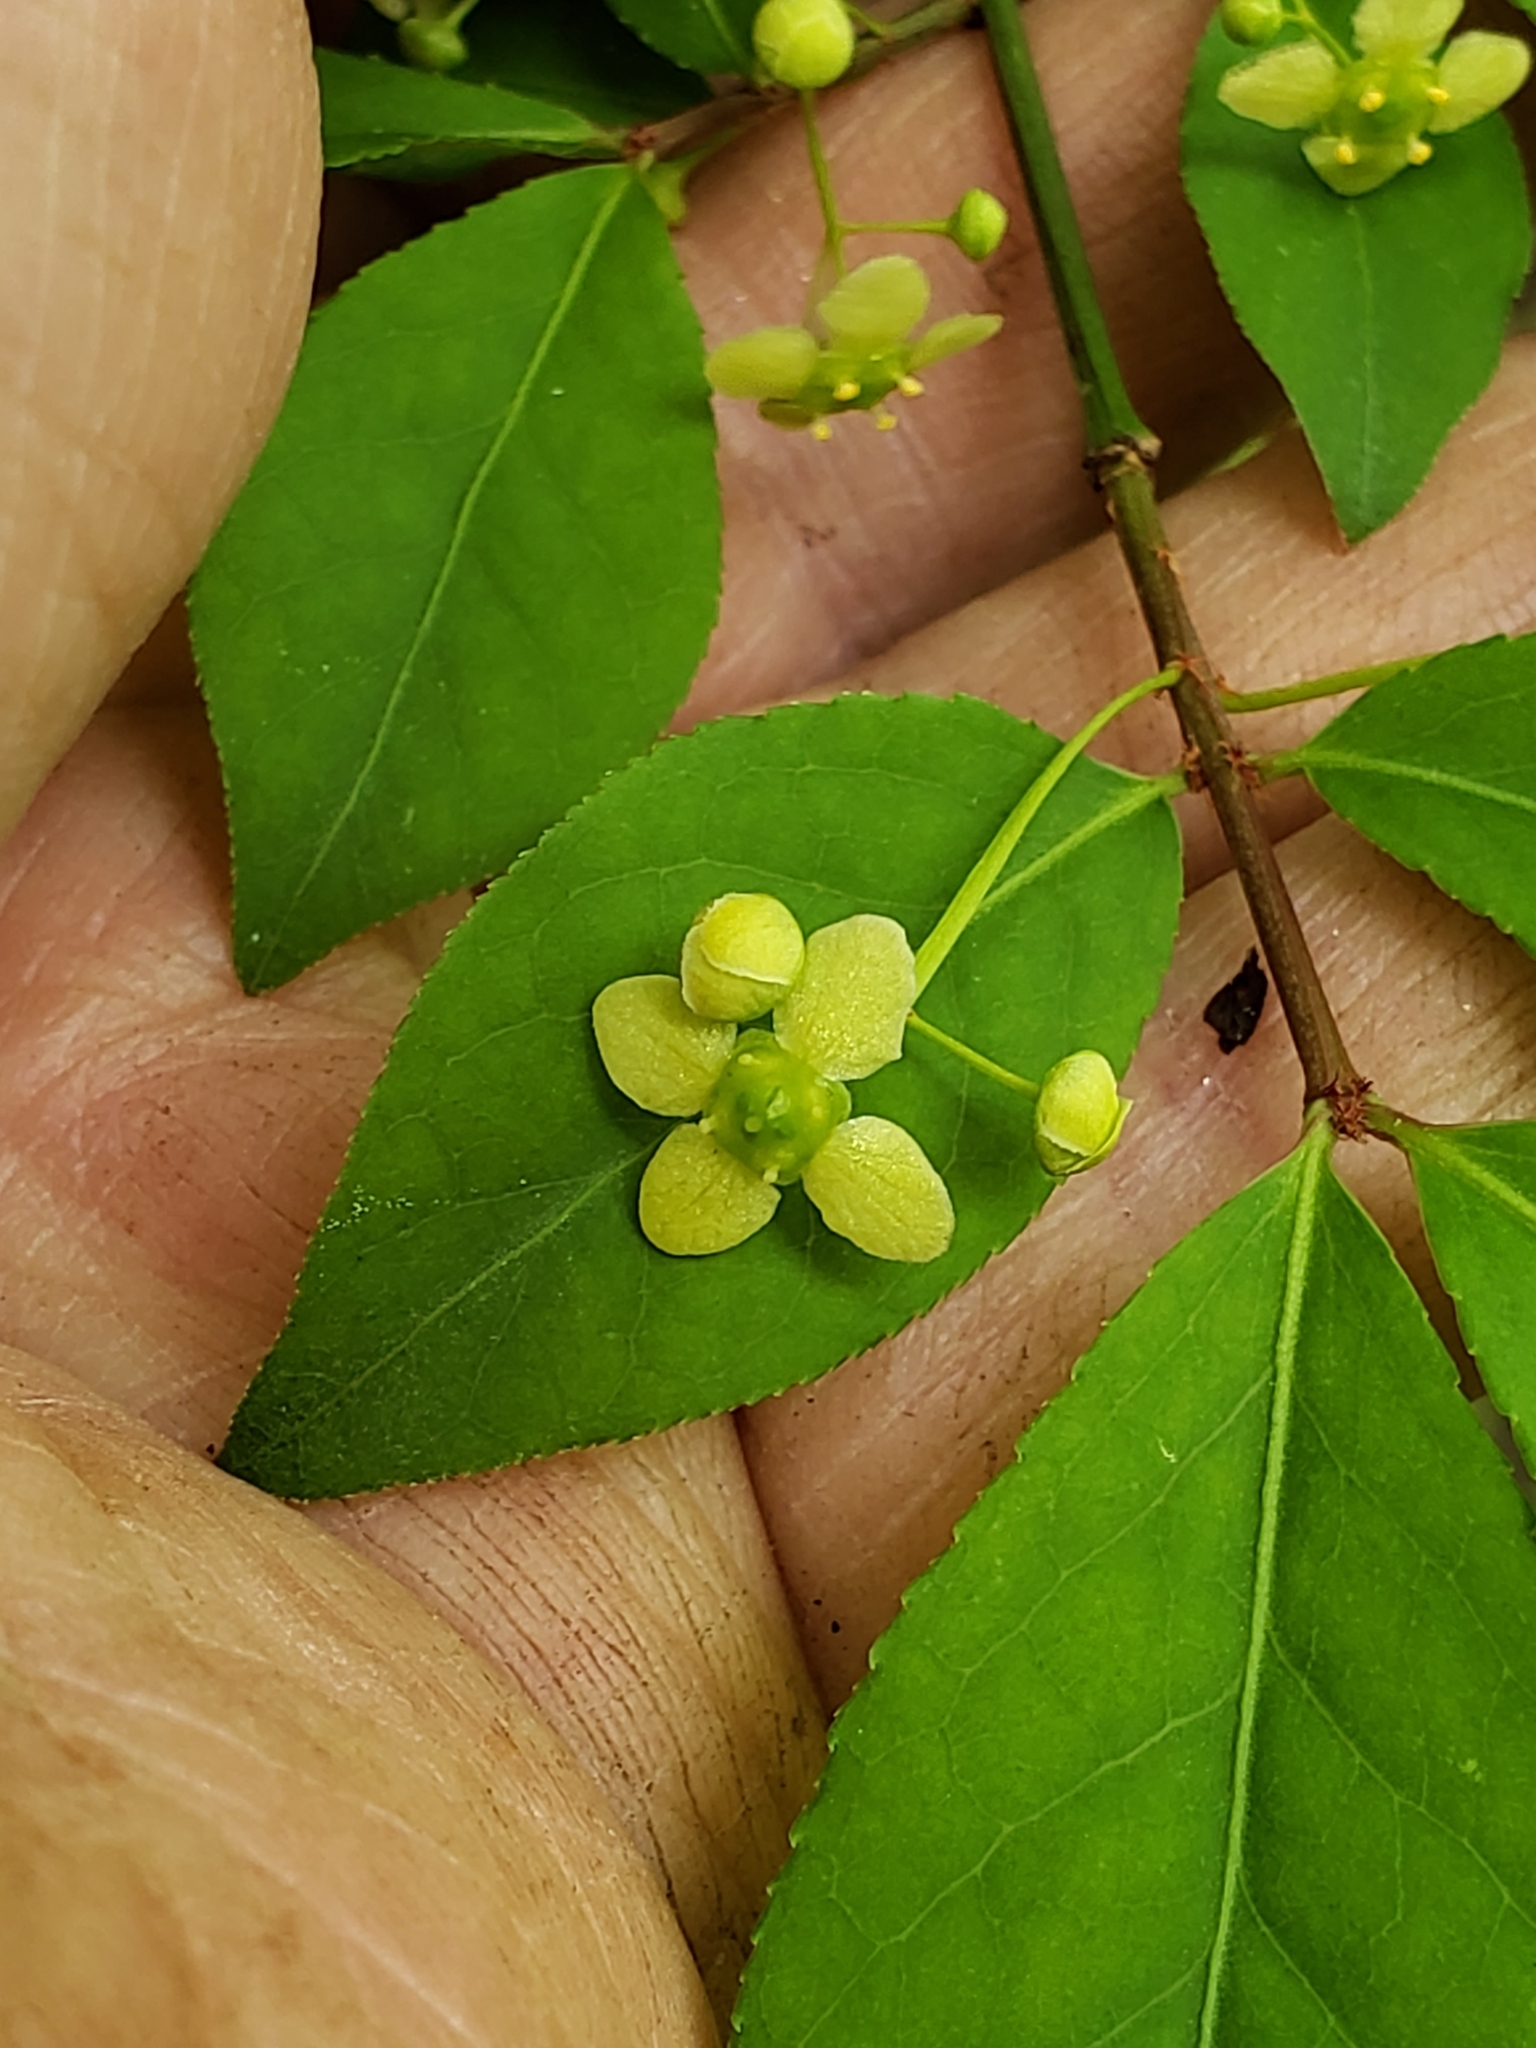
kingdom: Plantae
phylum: Tracheophyta
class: Magnoliopsida
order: Celastrales
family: Celastraceae
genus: Euonymus
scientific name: Euonymus alatus
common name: Winged euonymus
